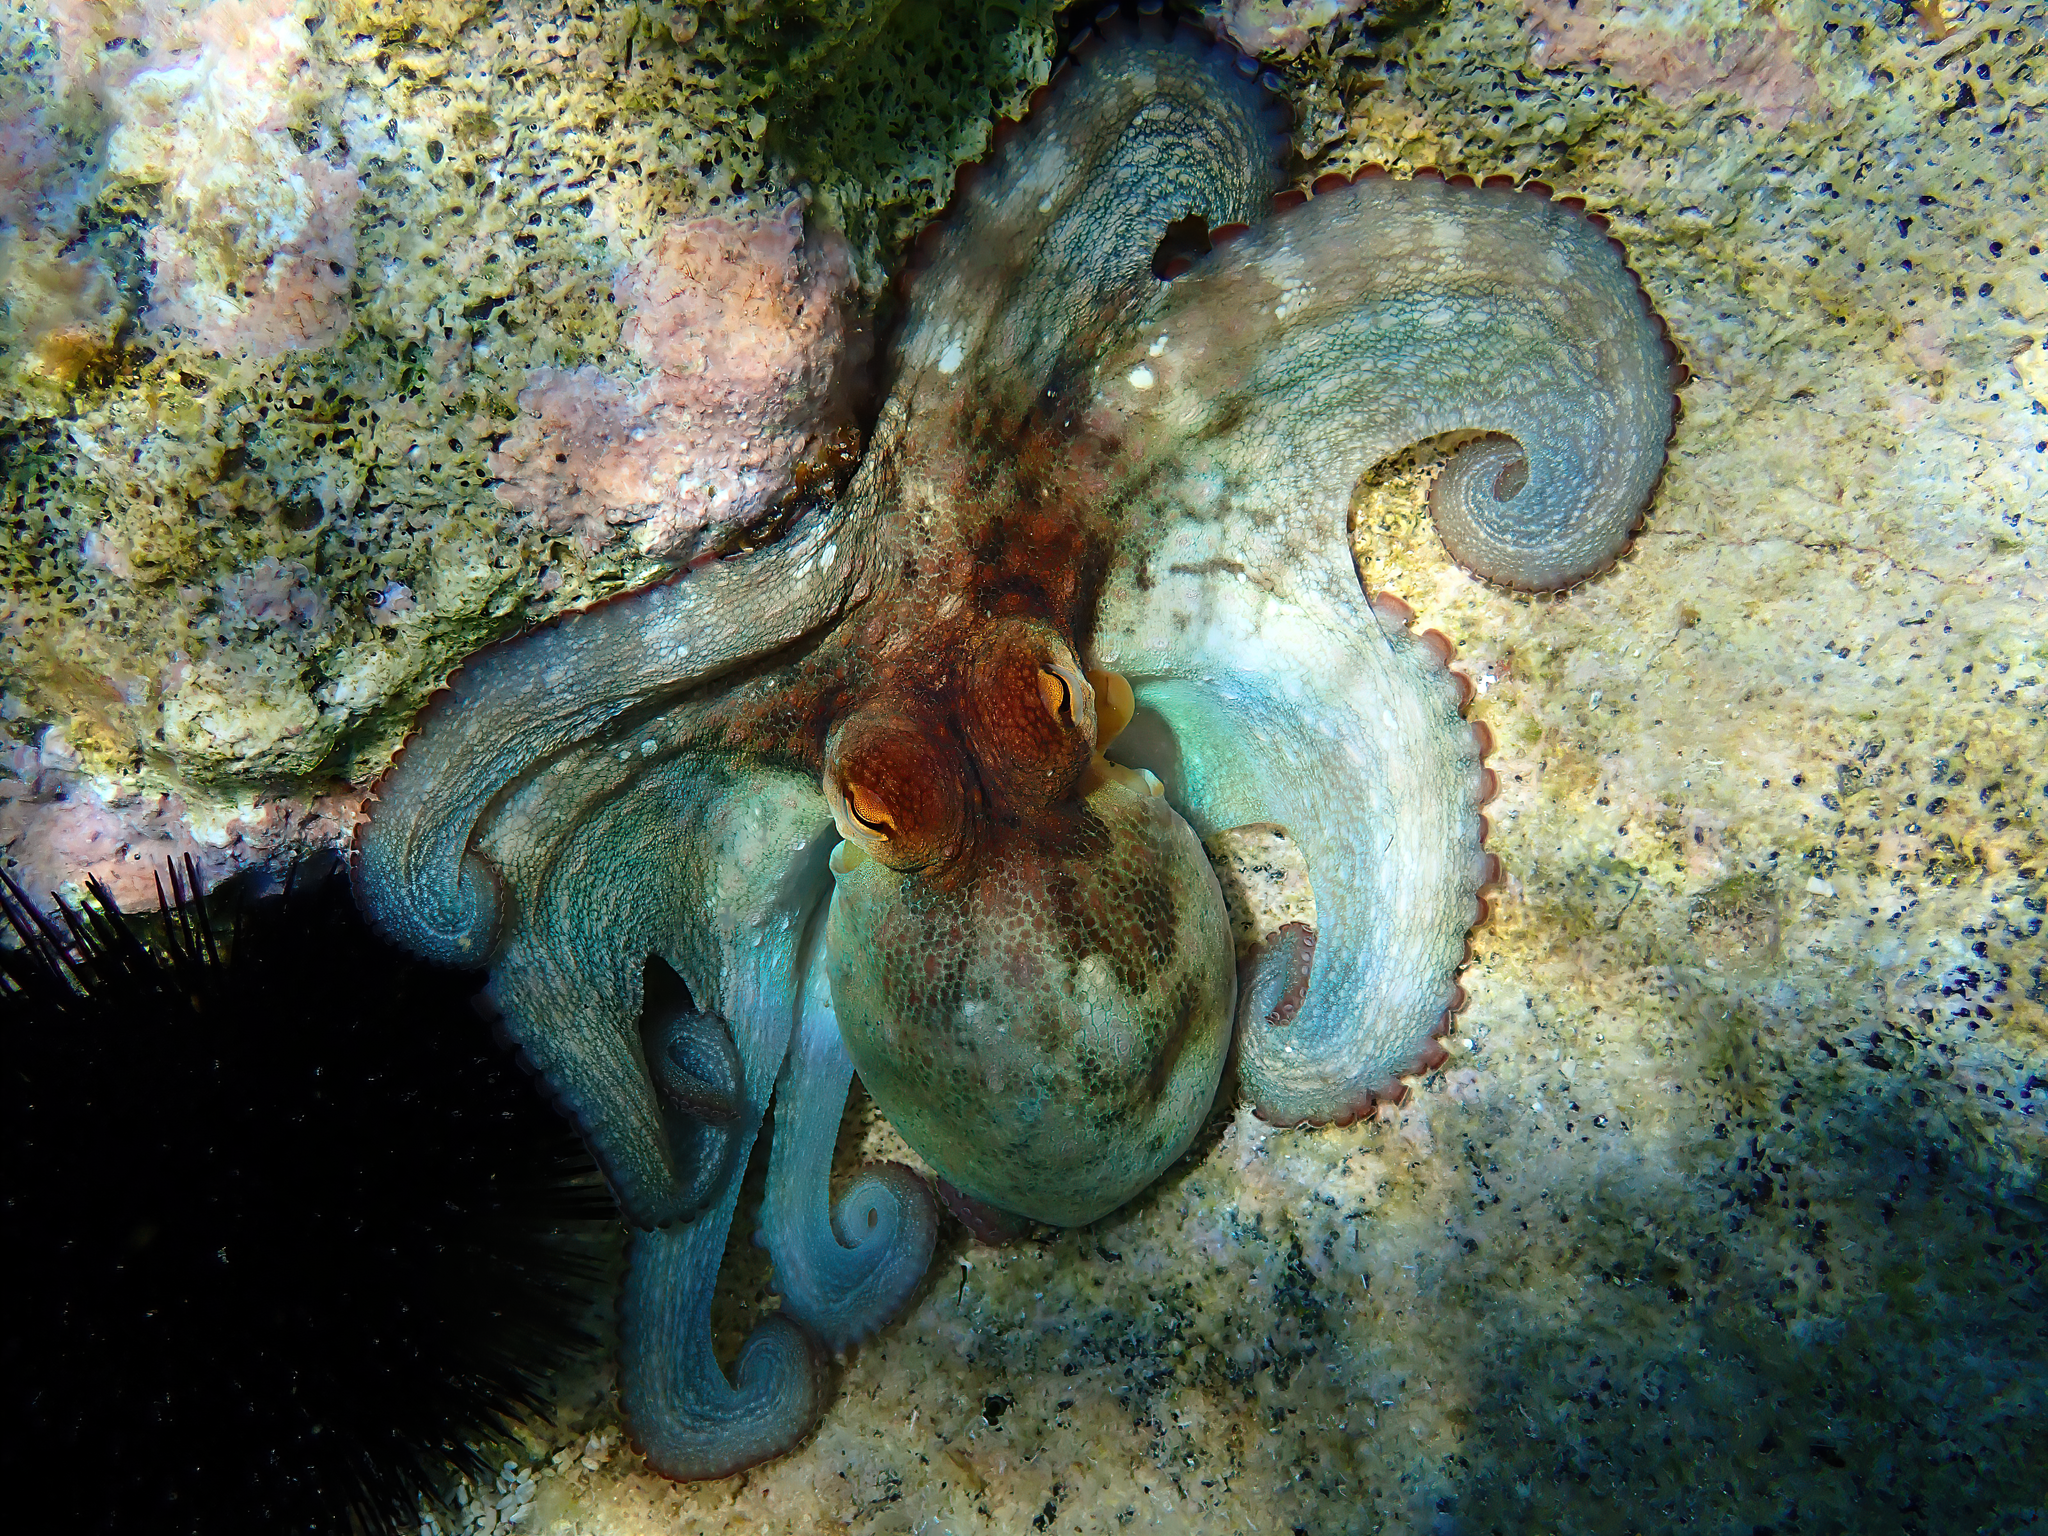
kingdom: Animalia
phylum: Mollusca
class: Cephalopoda
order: Octopoda
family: Octopodidae
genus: Octopus
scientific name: Octopus vulgaris
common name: Common octopus
